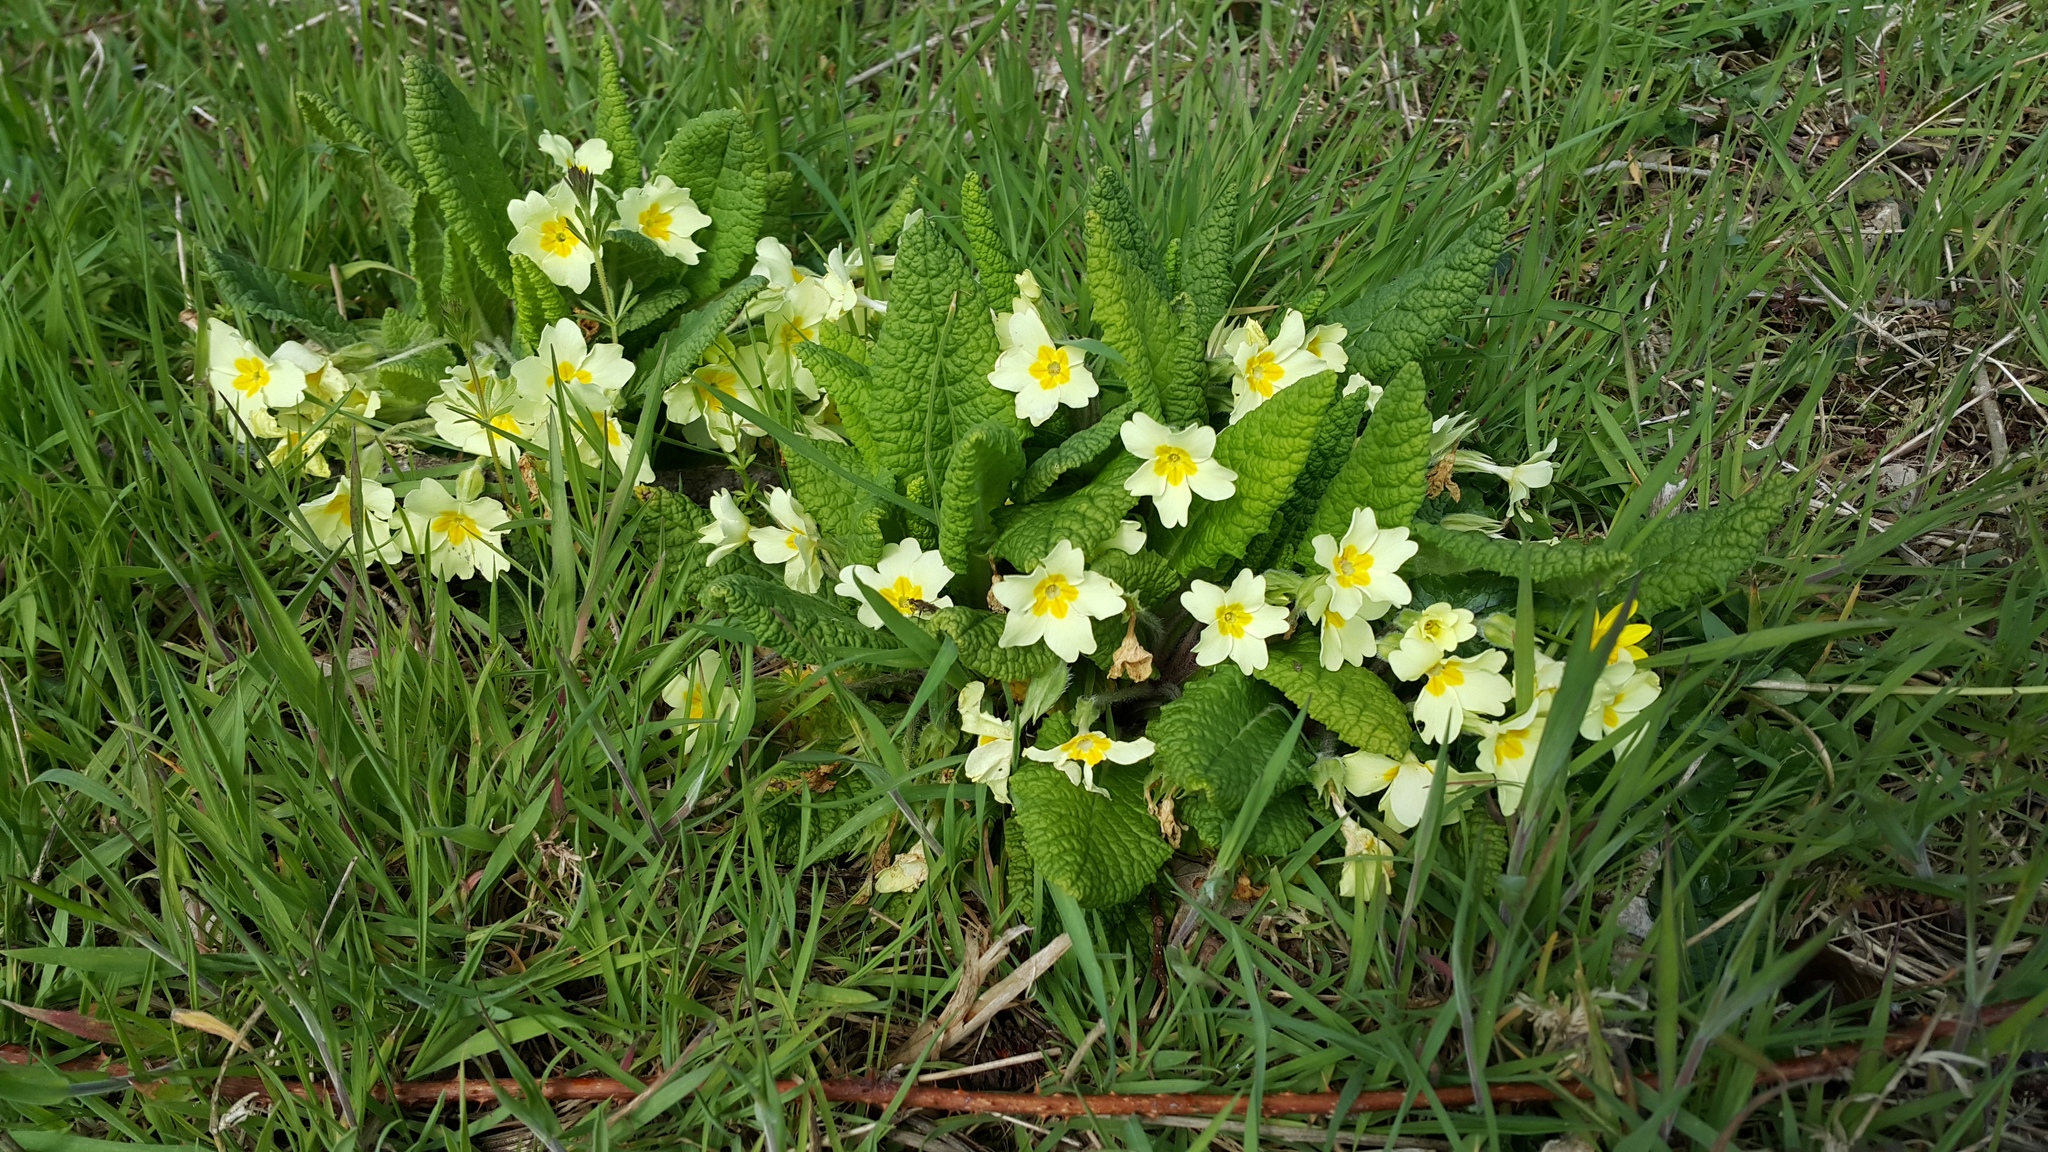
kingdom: Plantae
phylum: Tracheophyta
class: Magnoliopsida
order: Ericales
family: Primulaceae
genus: Primula
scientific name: Primula vulgaris
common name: Primrose
